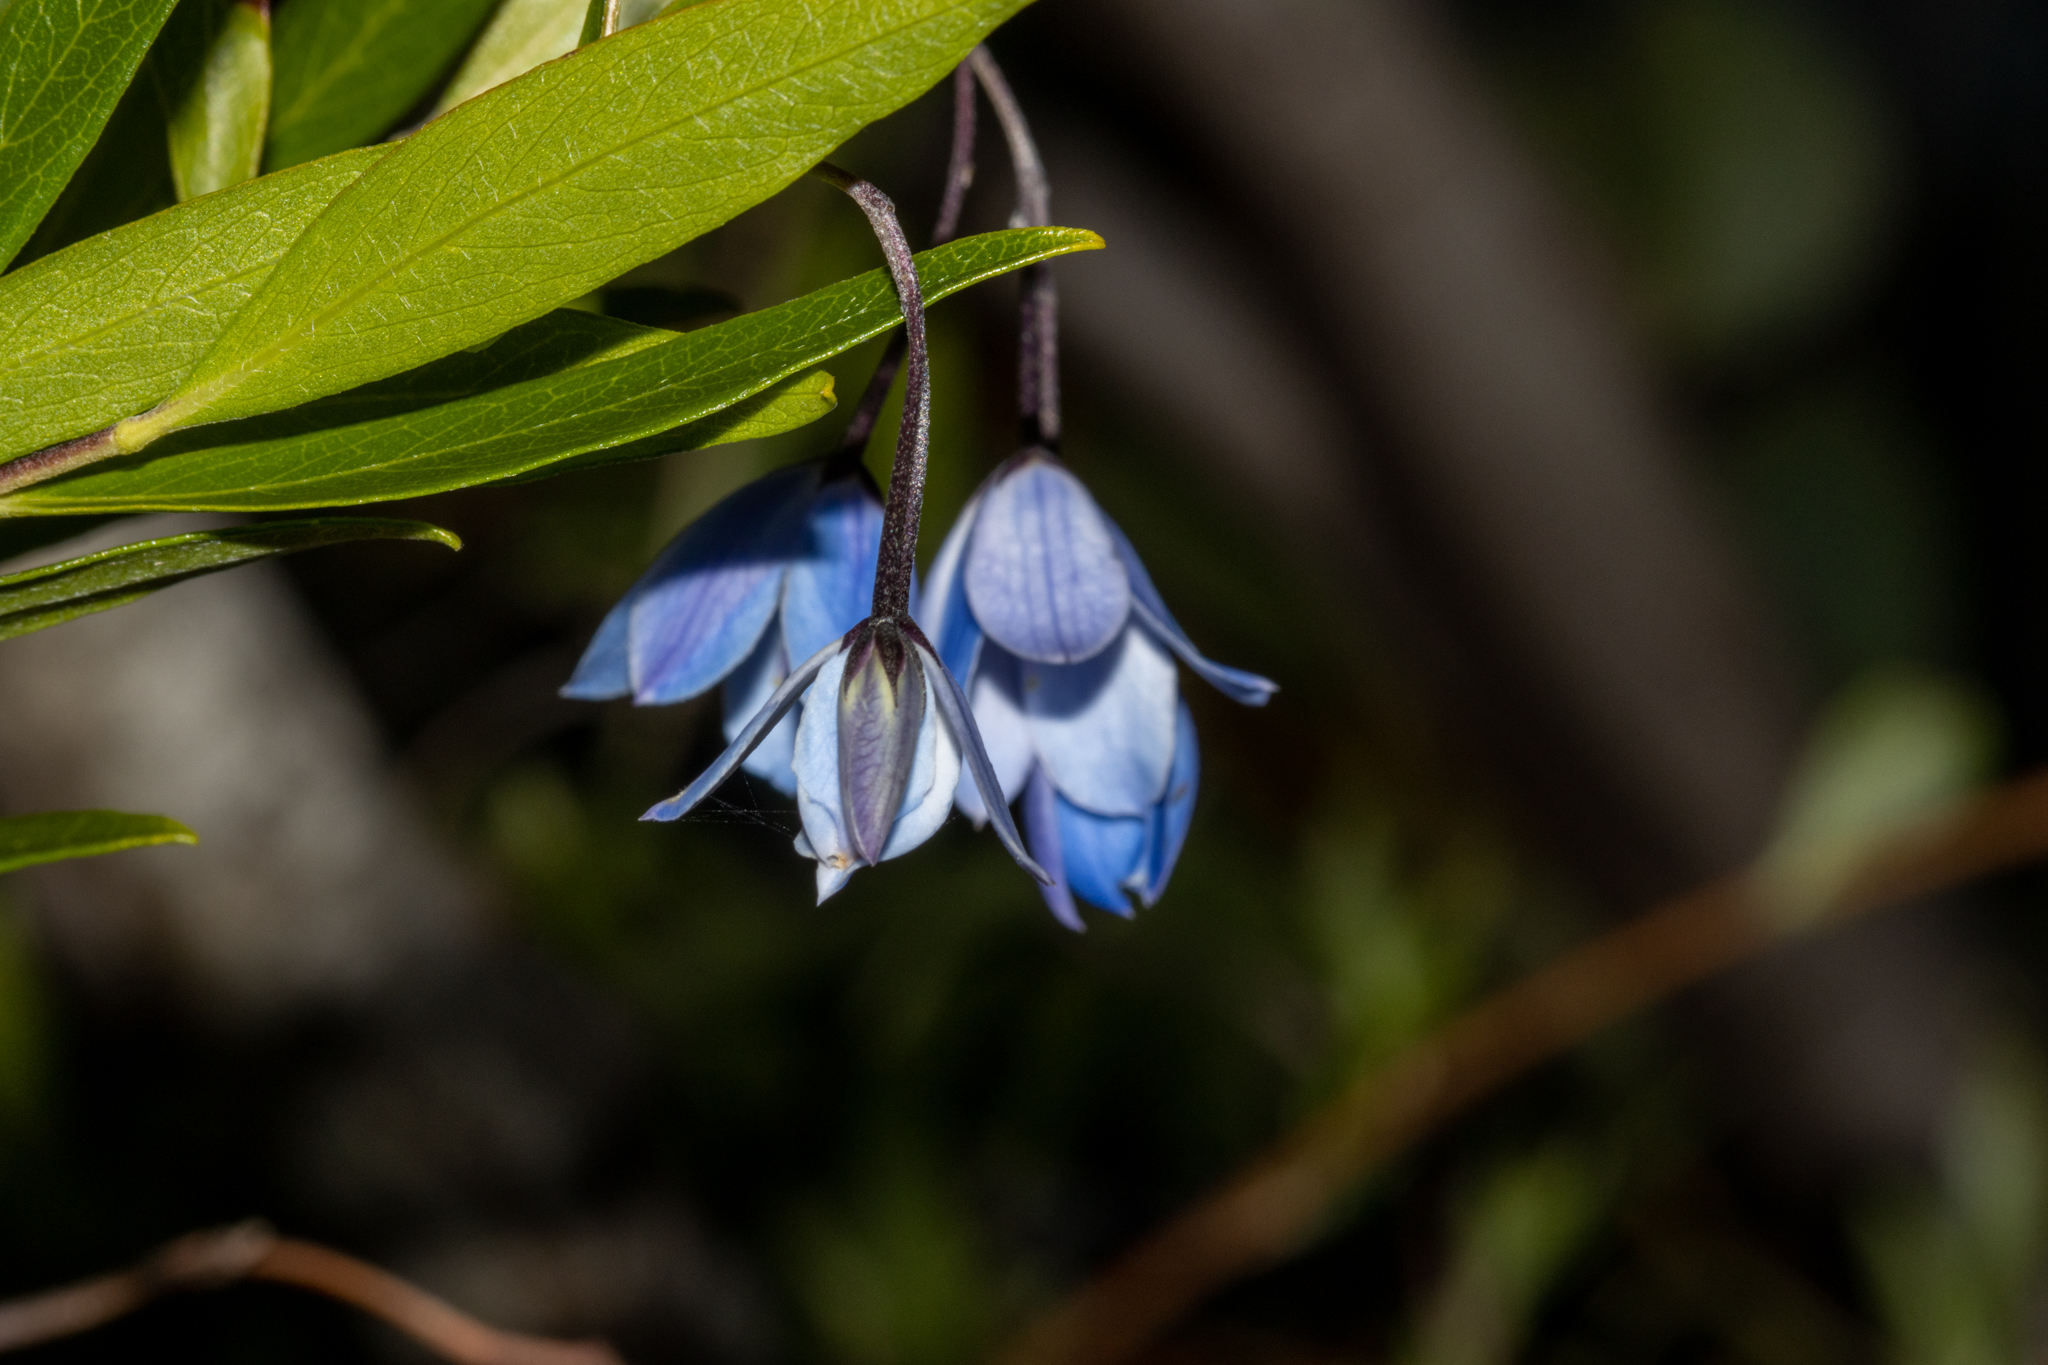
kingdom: Plantae
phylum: Tracheophyta
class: Magnoliopsida
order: Apiales
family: Pittosporaceae
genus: Billardiera
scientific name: Billardiera fusiformis
